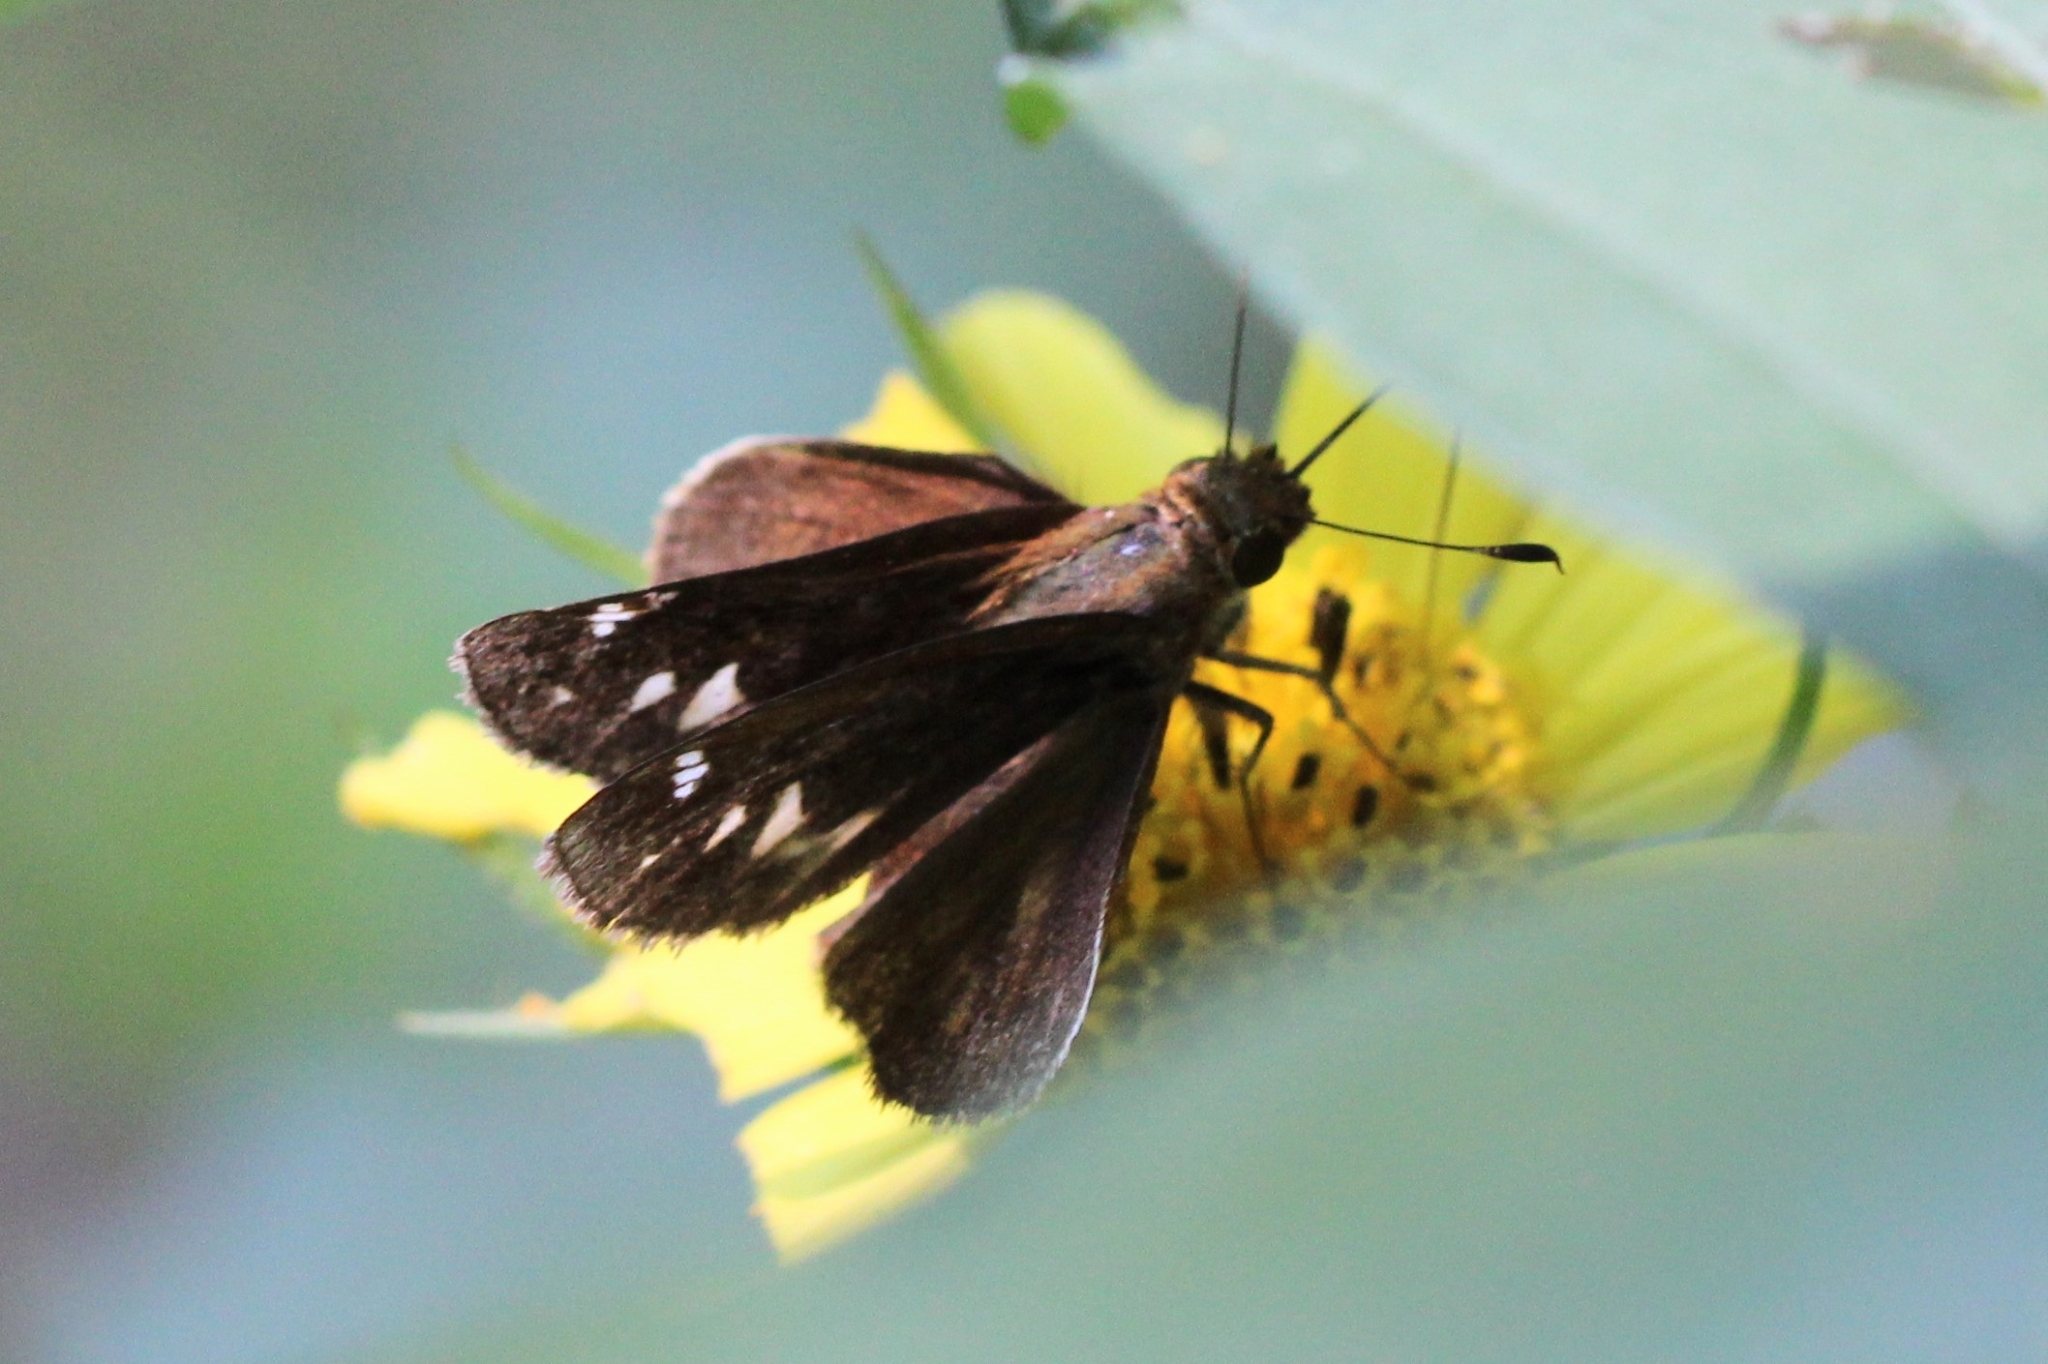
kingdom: Animalia
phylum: Arthropoda
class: Insecta
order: Lepidoptera
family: Hesperiidae
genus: Lon
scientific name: Lon zabulon
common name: Zabulon skipper
